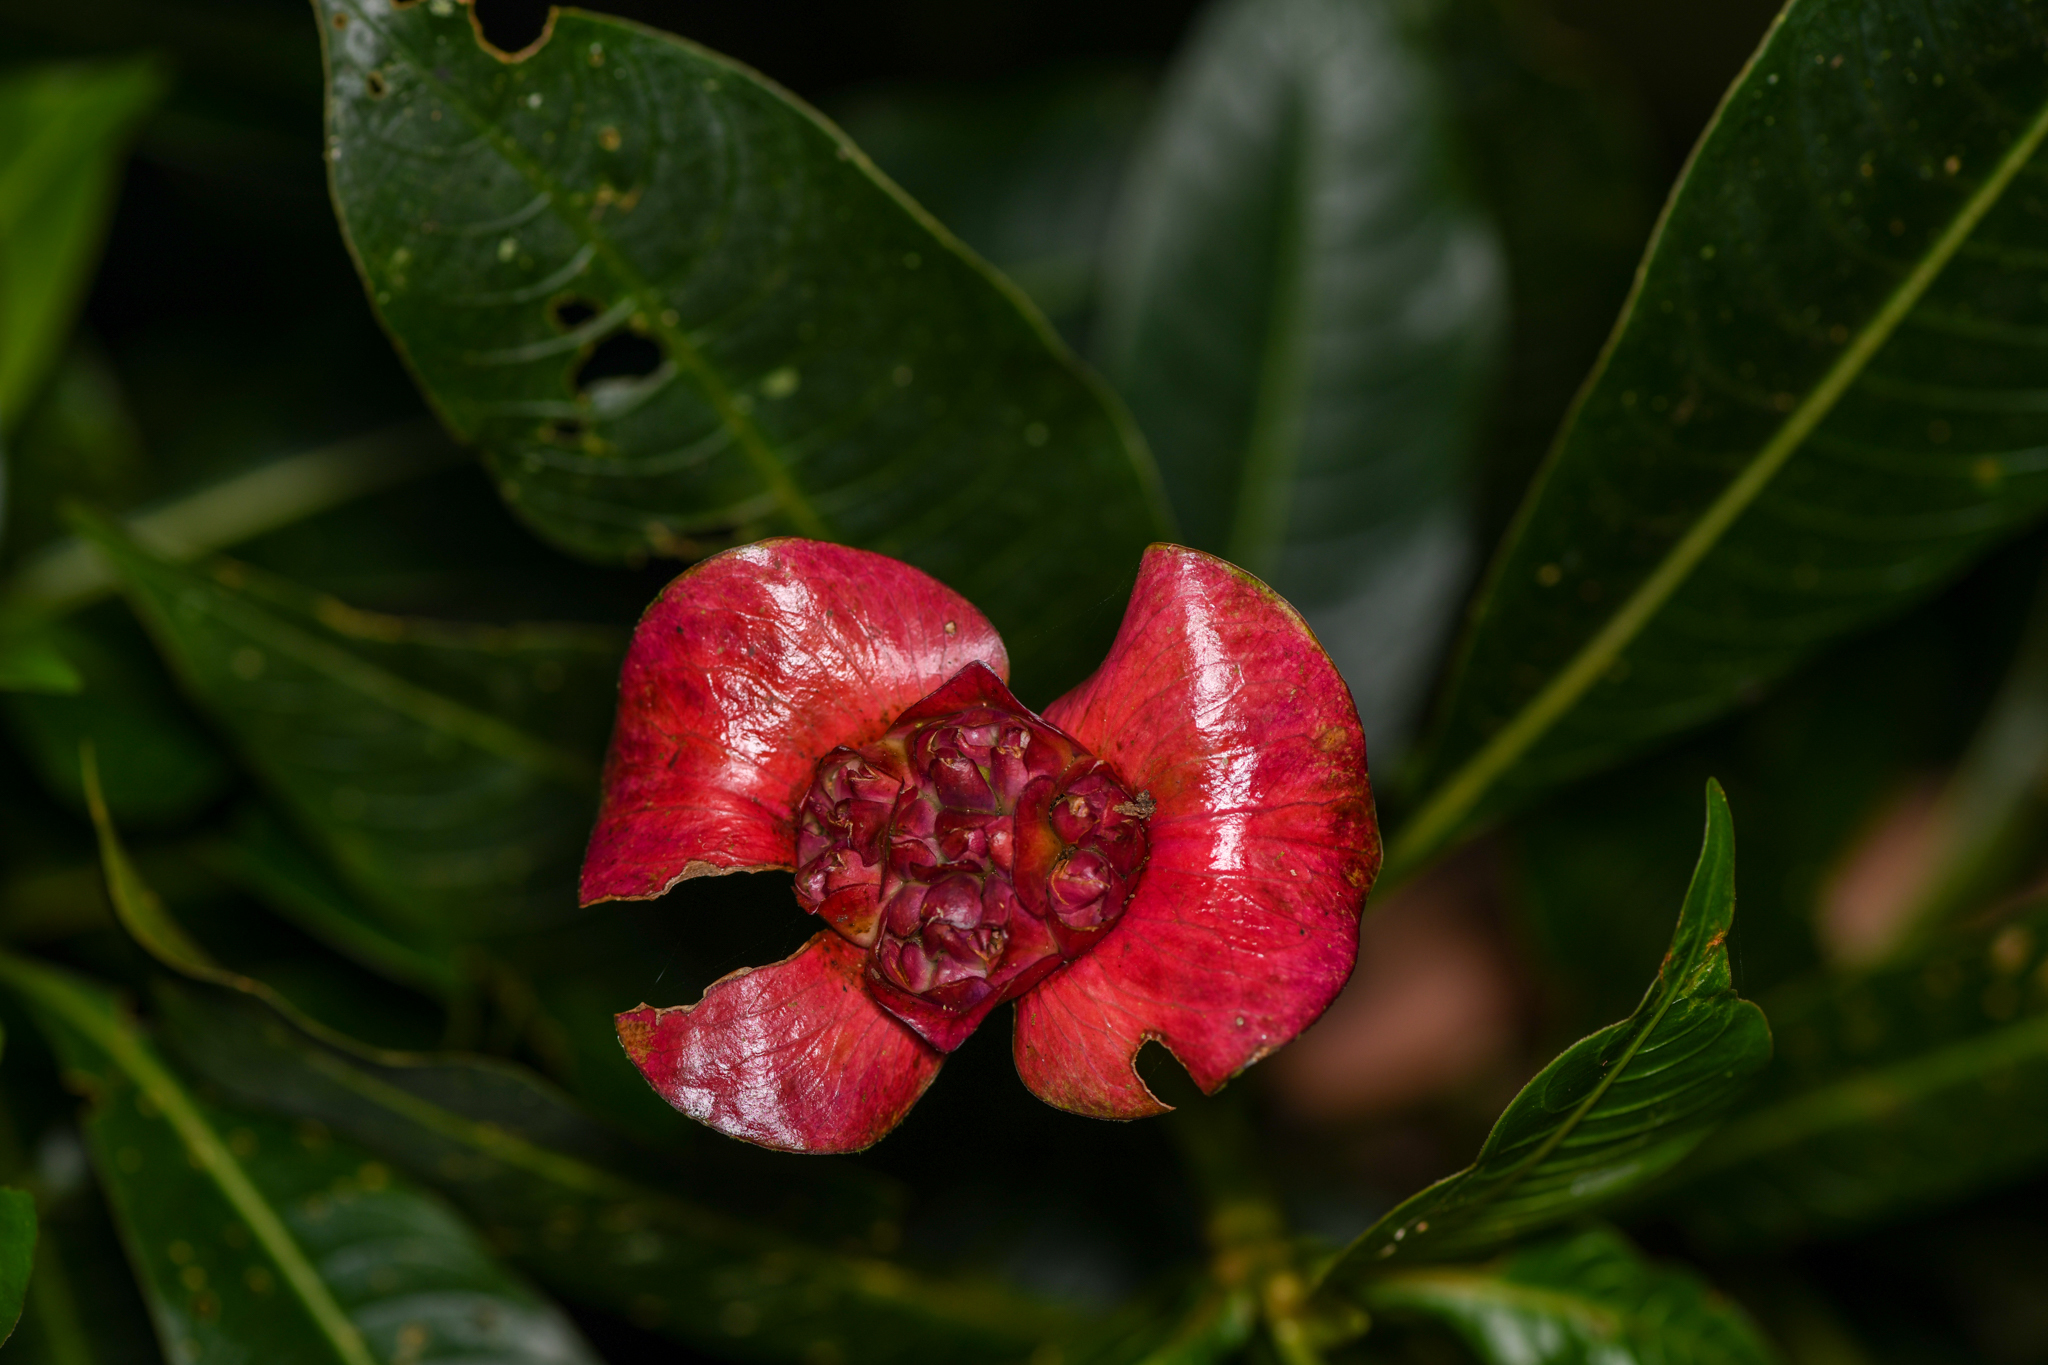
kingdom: Plantae
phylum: Tracheophyta
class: Magnoliopsida
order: Gentianales
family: Rubiaceae
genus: Palicourea
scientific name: Palicourea elata
